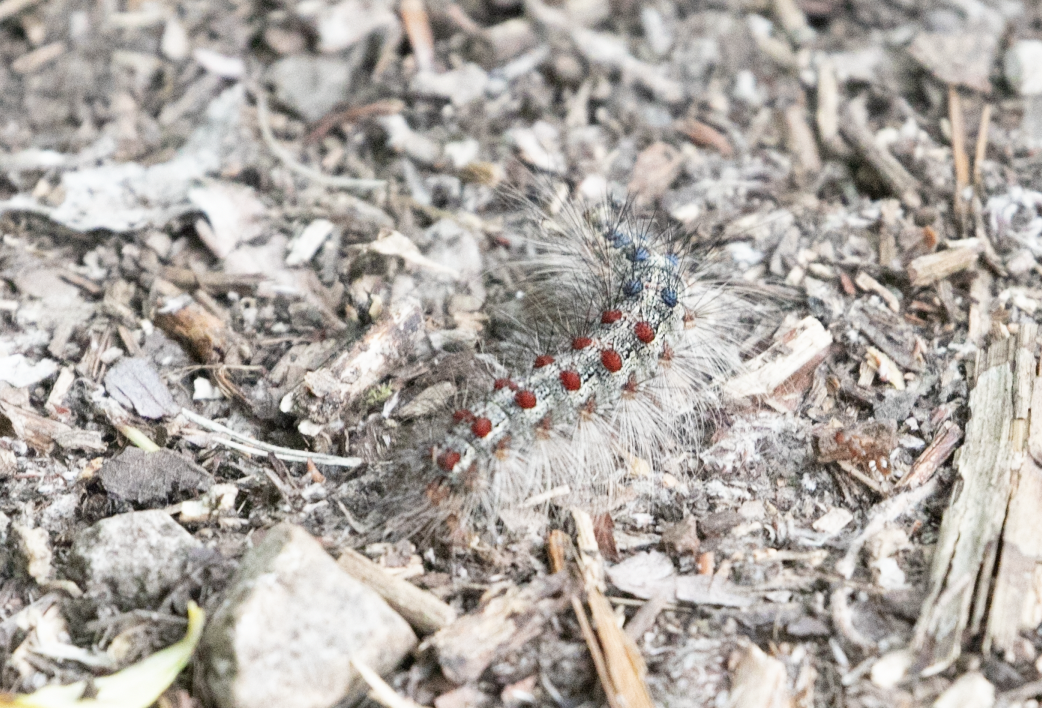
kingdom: Animalia
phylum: Arthropoda
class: Insecta
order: Lepidoptera
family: Erebidae
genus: Lymantria
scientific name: Lymantria dispar
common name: Gypsy moth
